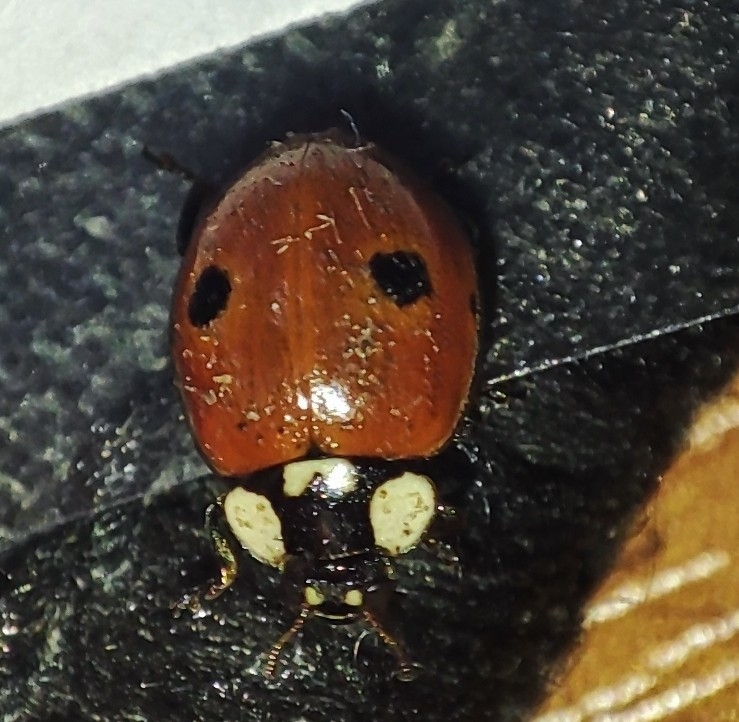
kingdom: Animalia
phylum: Arthropoda
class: Insecta
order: Coleoptera
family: Coccinellidae
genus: Adalia
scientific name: Adalia bipunctata
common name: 2-spot ladybird
